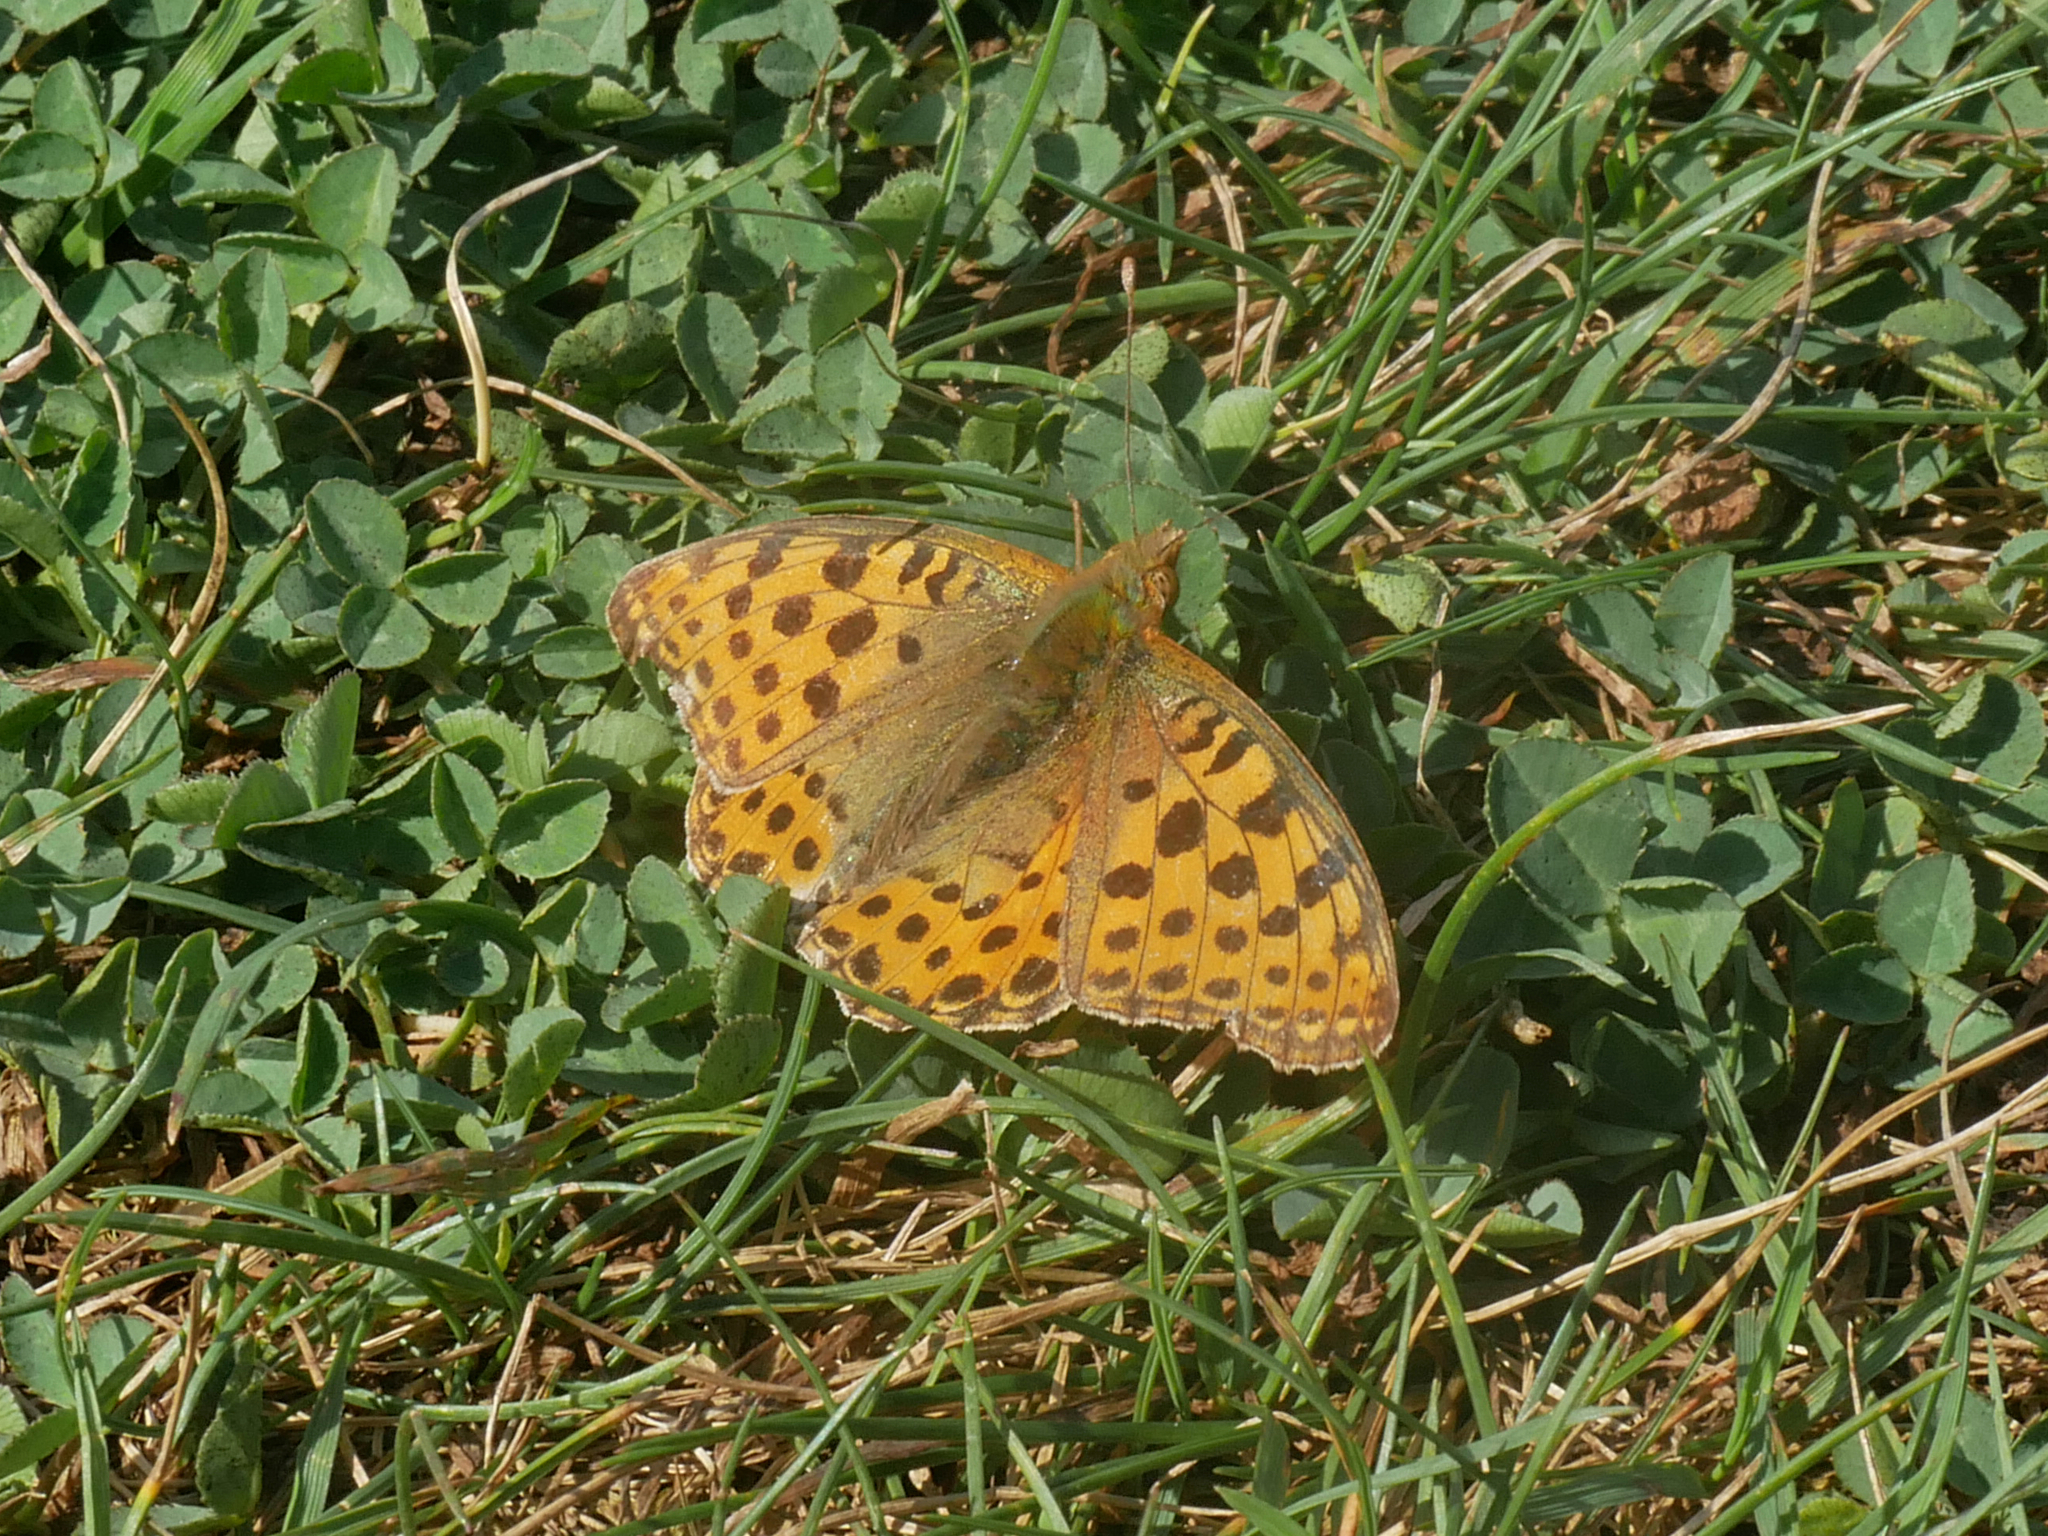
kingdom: Animalia
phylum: Arthropoda
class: Insecta
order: Lepidoptera
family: Nymphalidae
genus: Issoria
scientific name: Issoria lathonia
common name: Queen of spain fritillary
